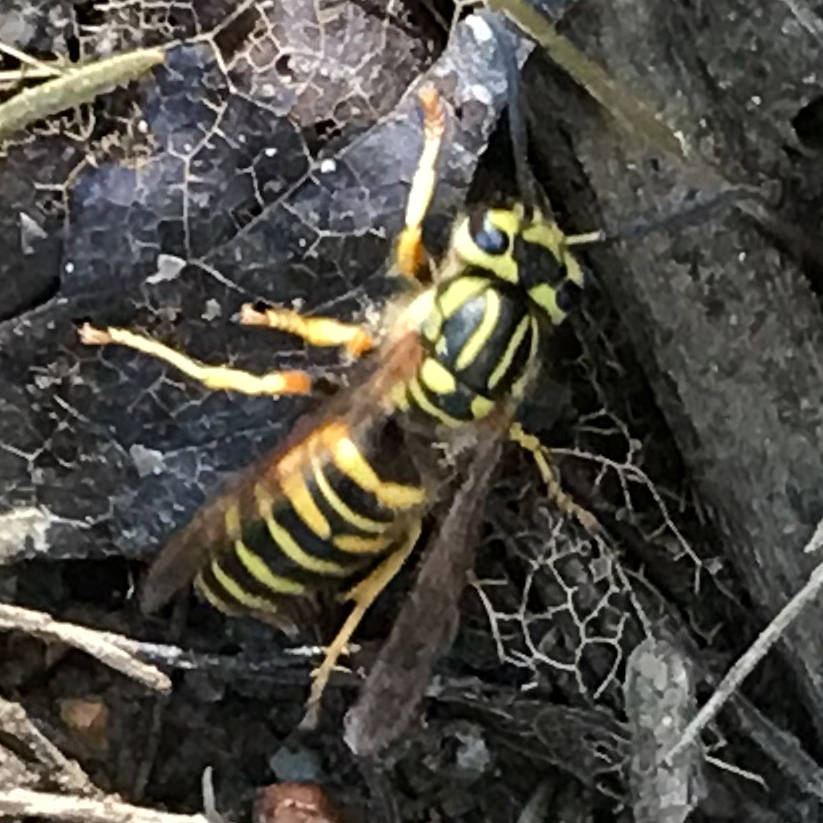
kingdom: Animalia
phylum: Arthropoda
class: Insecta
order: Hymenoptera
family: Vespidae
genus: Vespula
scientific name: Vespula squamosa
